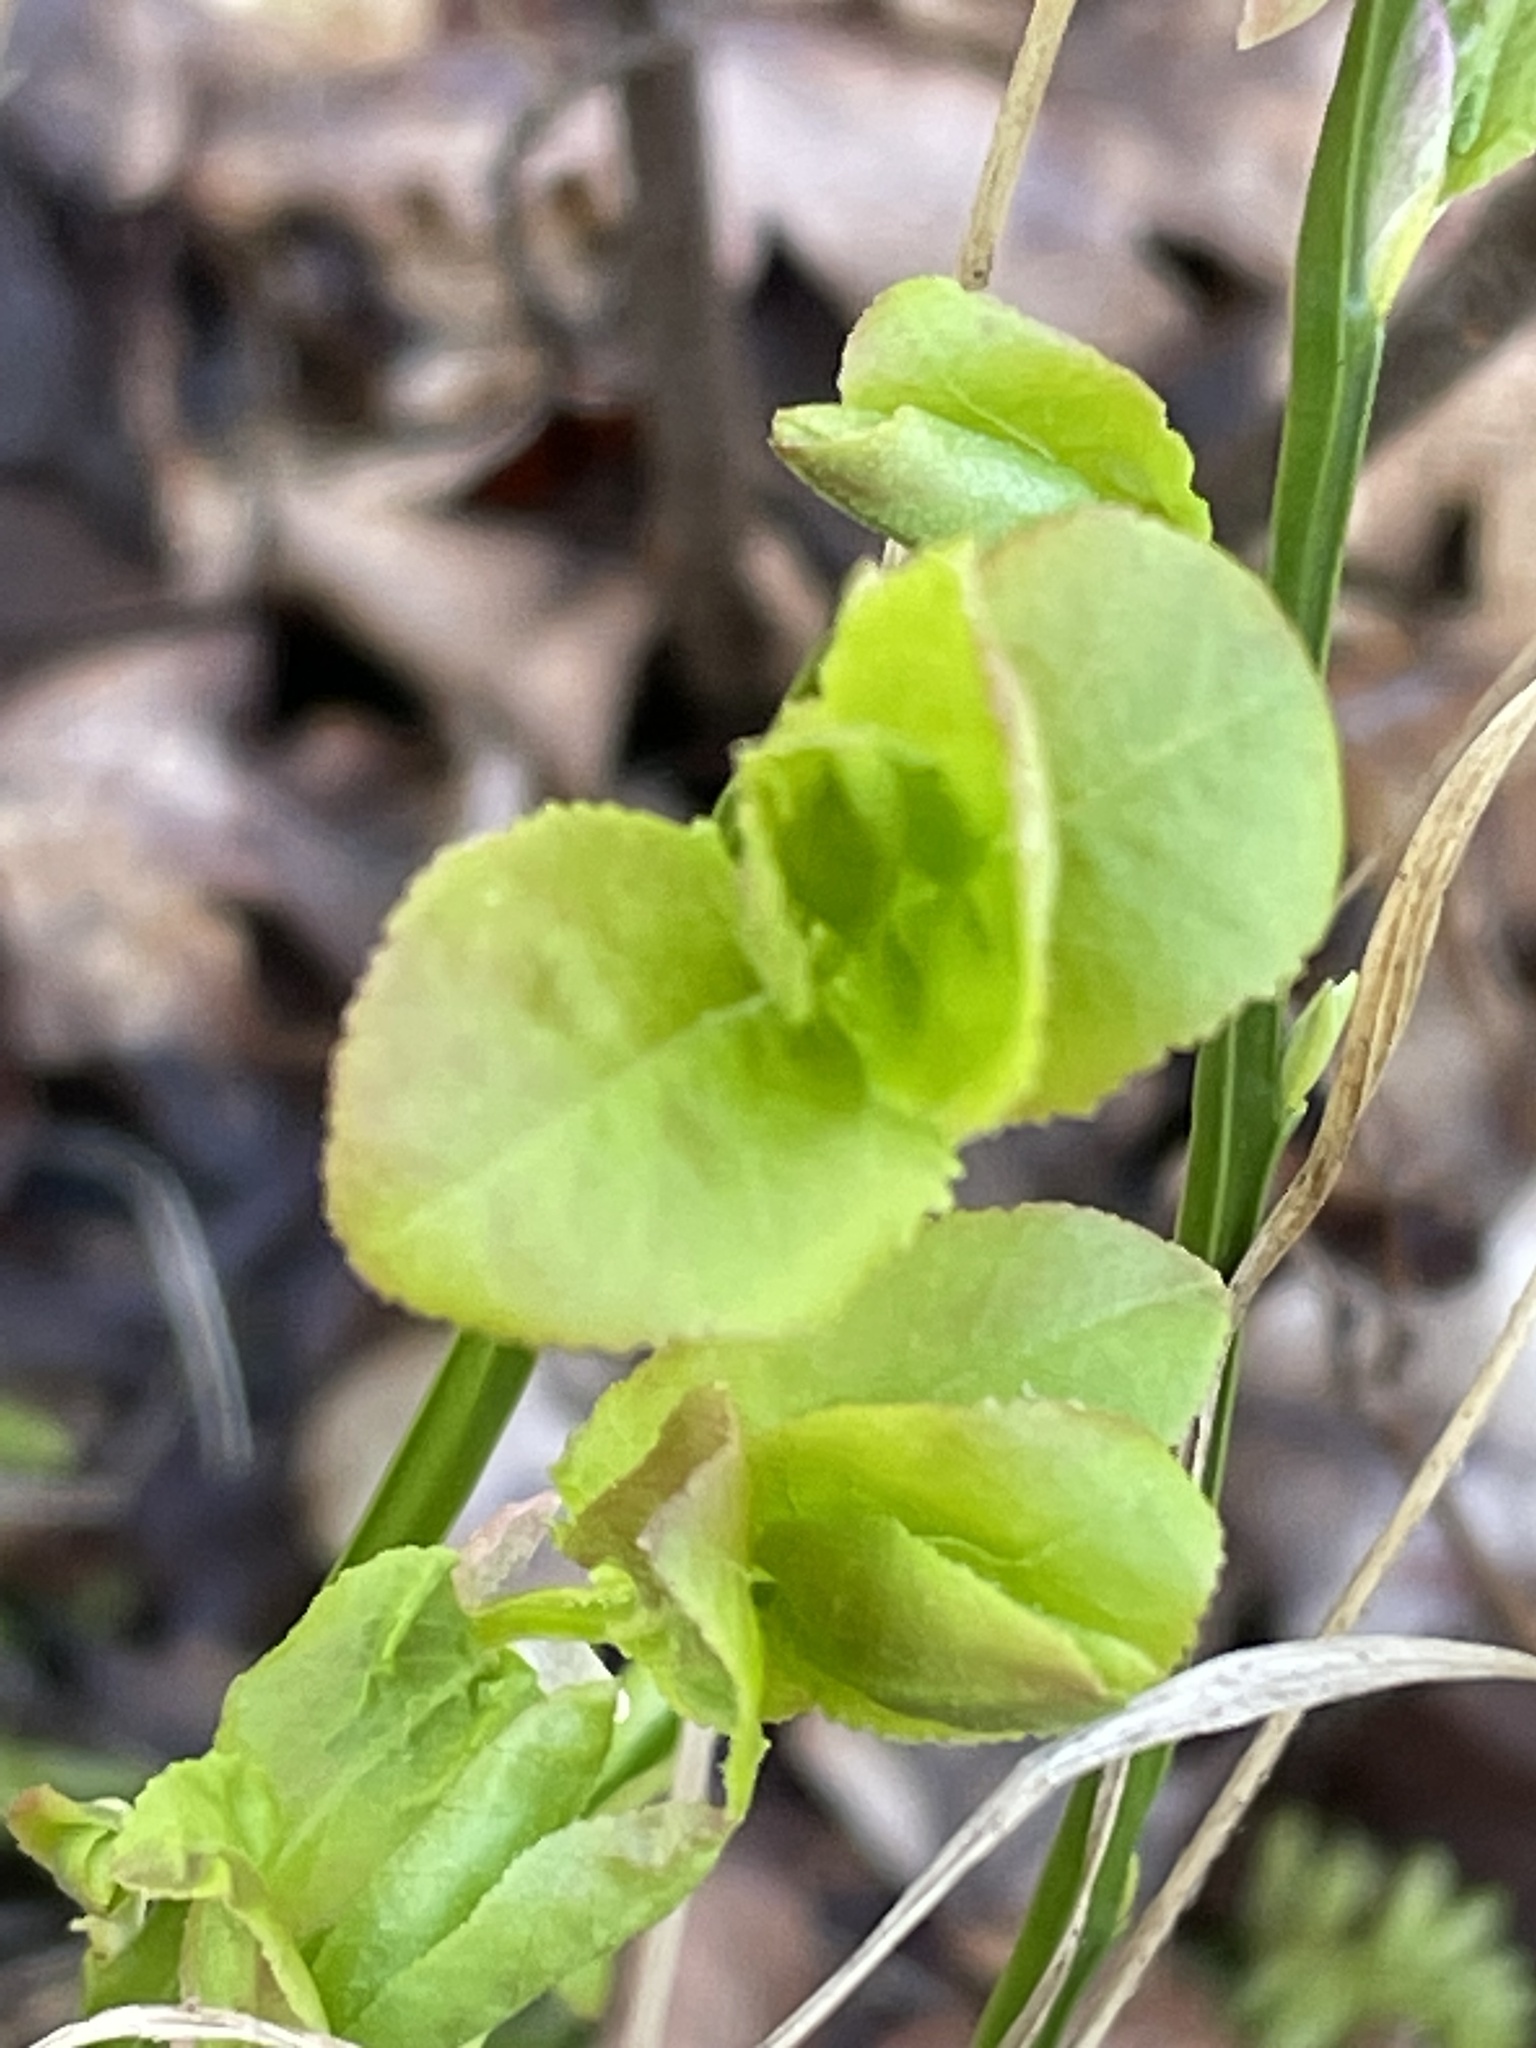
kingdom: Plantae
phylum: Tracheophyta
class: Magnoliopsida
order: Ericales
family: Ericaceae
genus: Vaccinium
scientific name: Vaccinium myrtillus
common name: Bilberry
